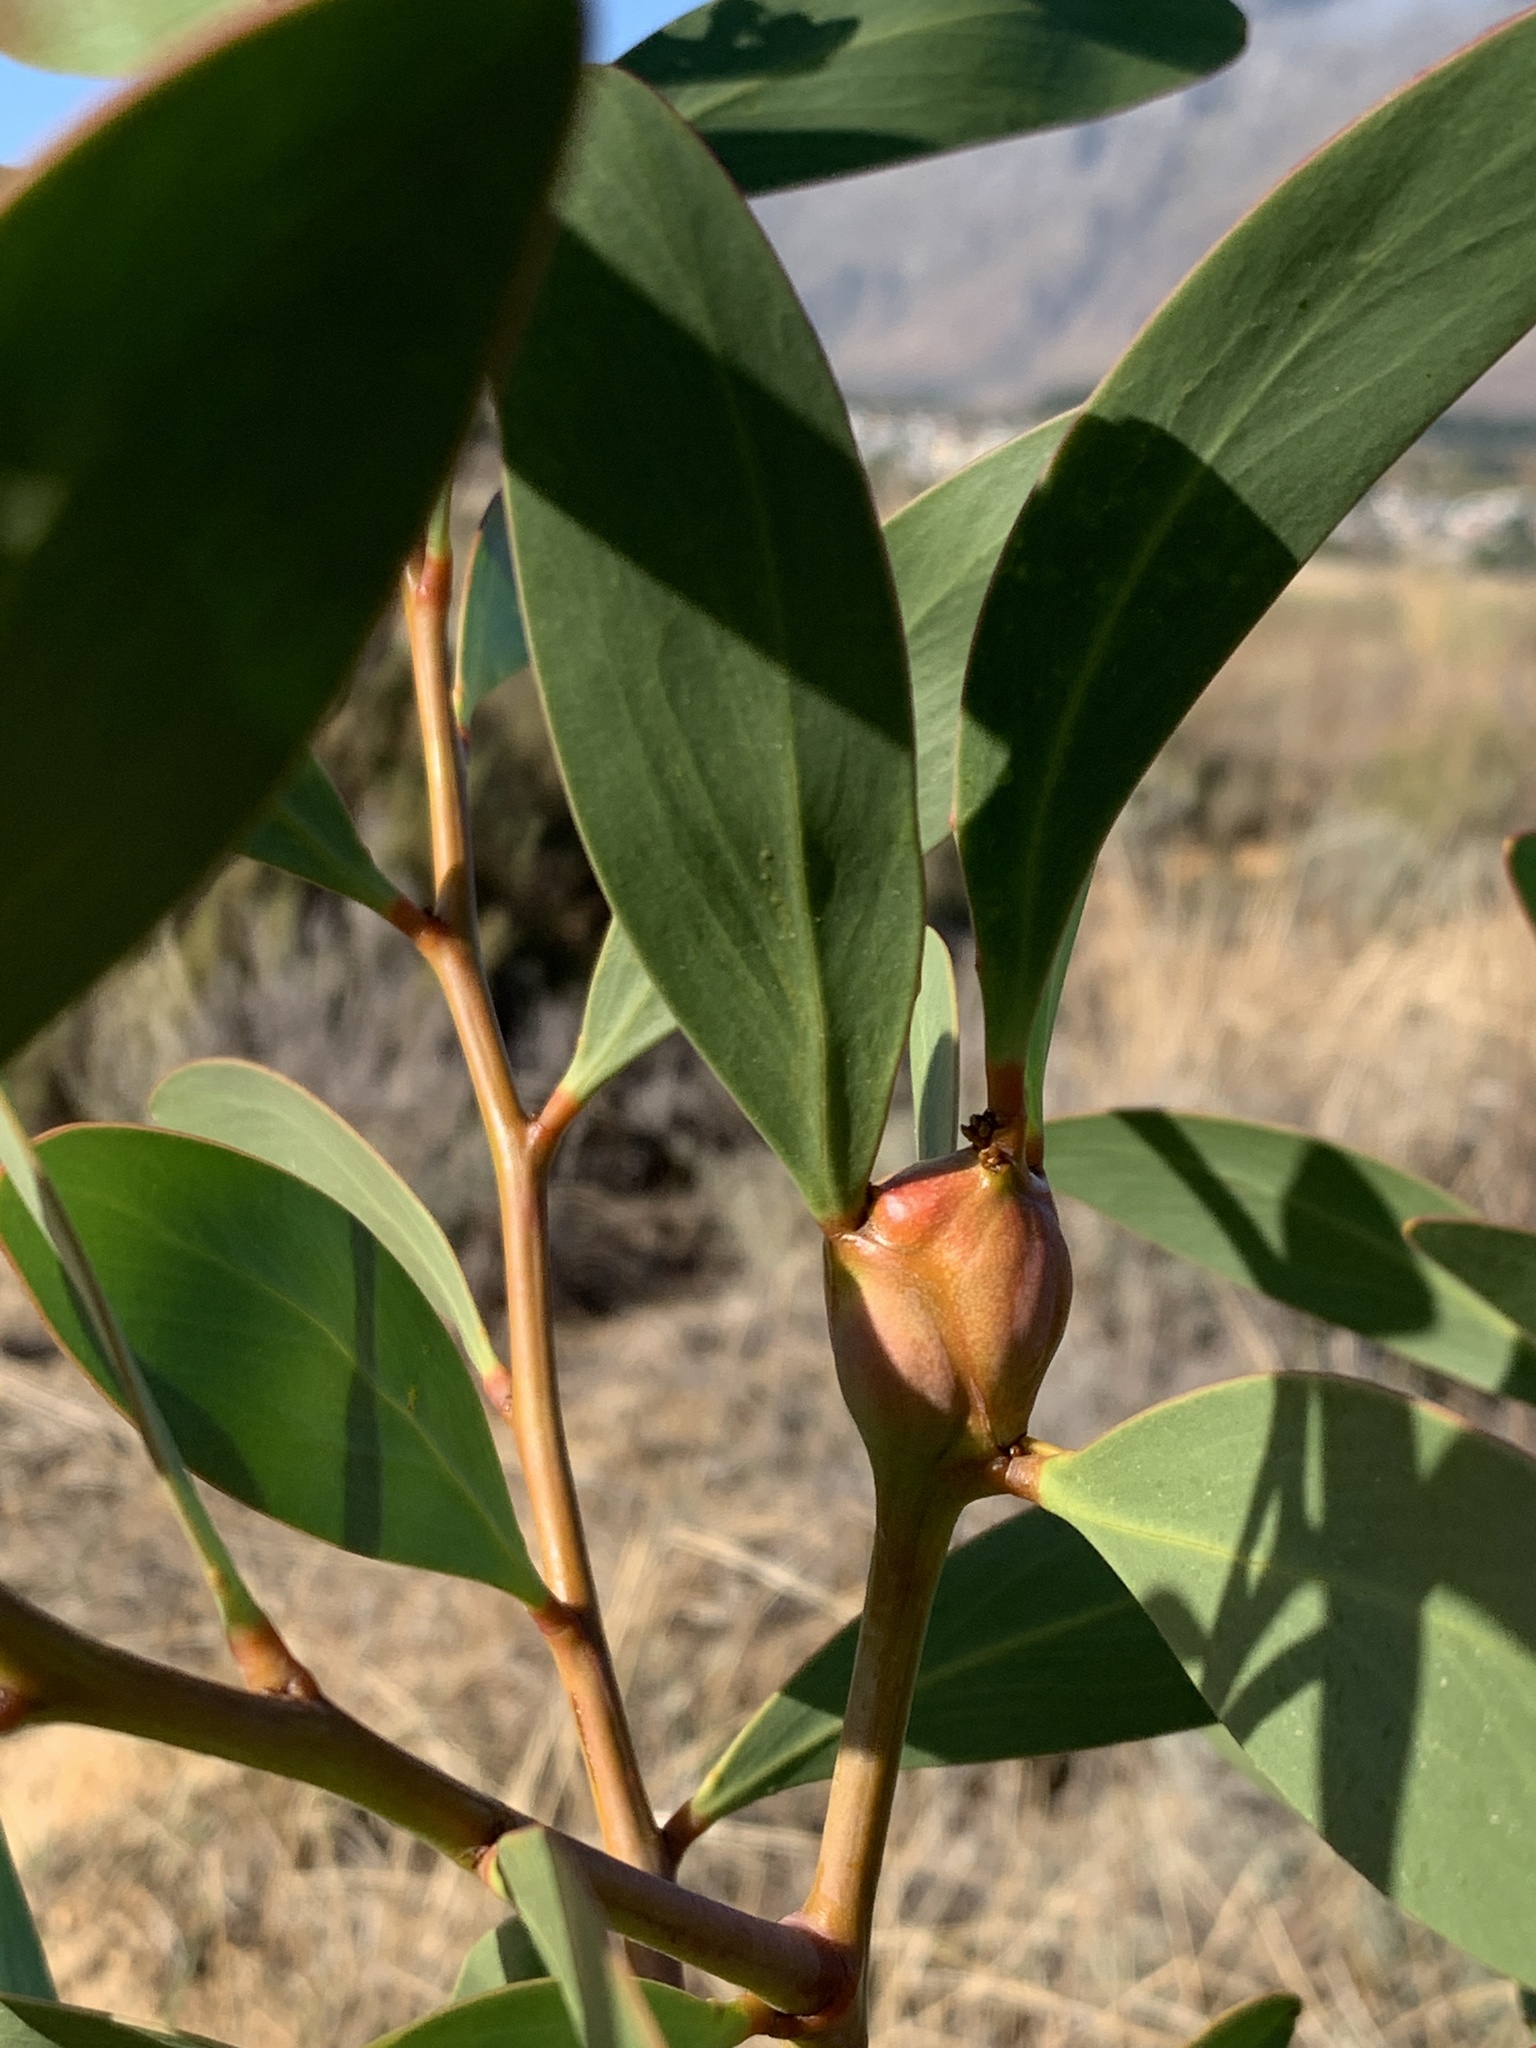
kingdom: Animalia
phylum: Arthropoda
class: Insecta
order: Hymenoptera
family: Pteromalidae
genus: Trichilogaster
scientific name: Trichilogaster signiventris
